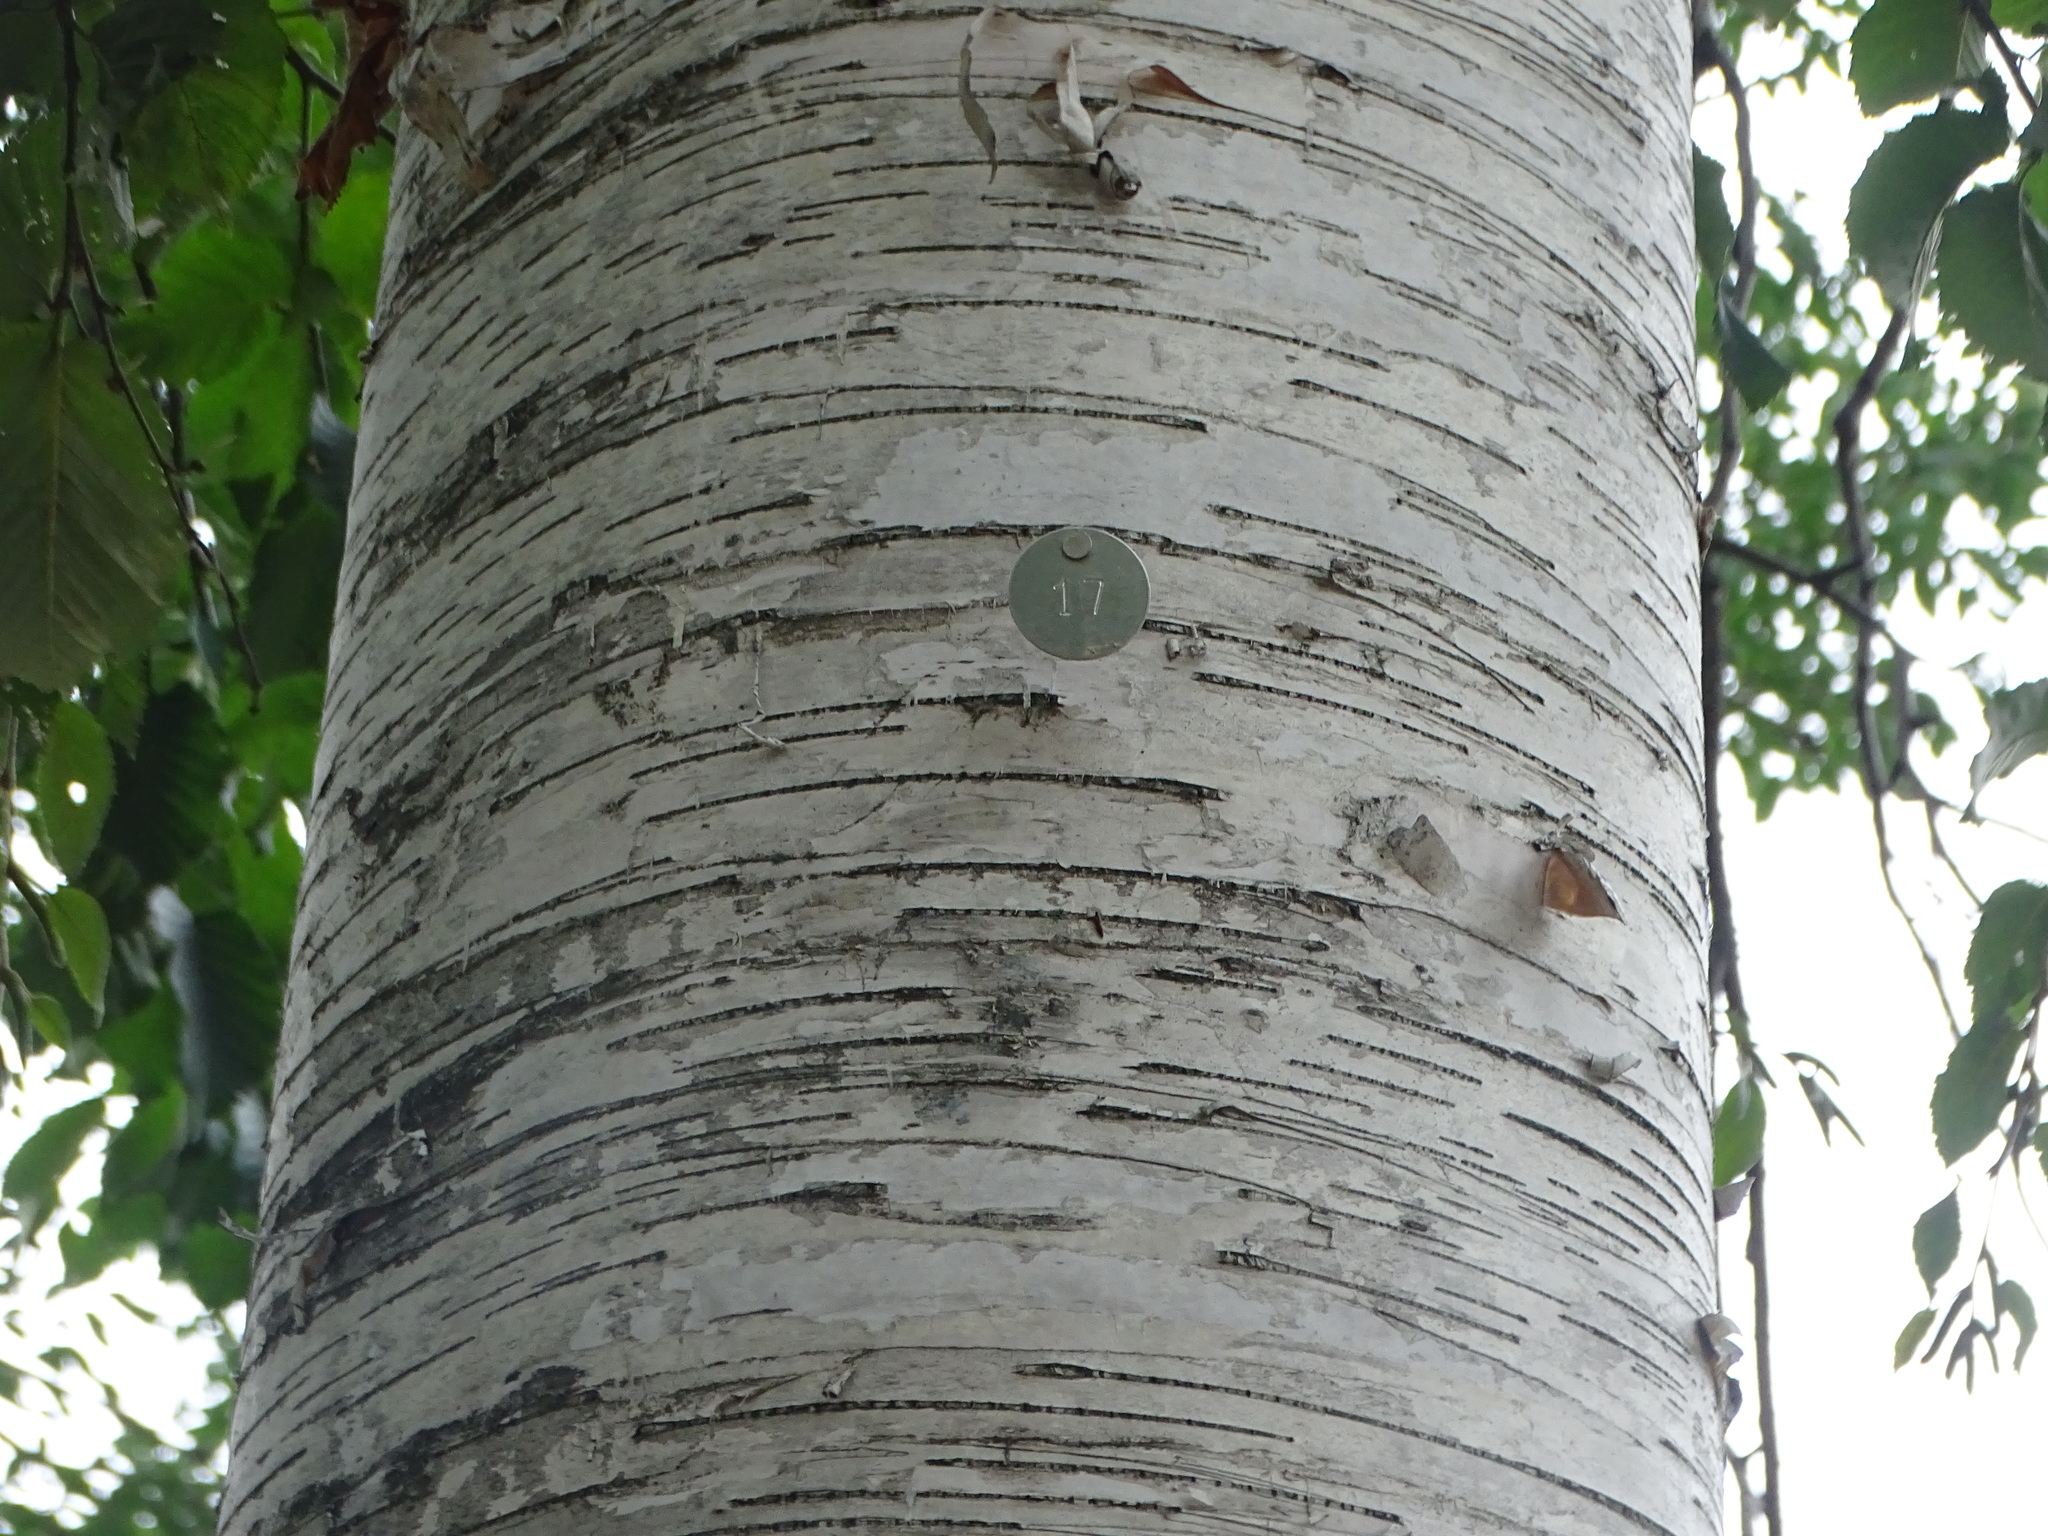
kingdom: Plantae
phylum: Tracheophyta
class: Magnoliopsida
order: Fagales
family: Betulaceae
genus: Betula
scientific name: Betula papyrifera
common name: Paper birch
